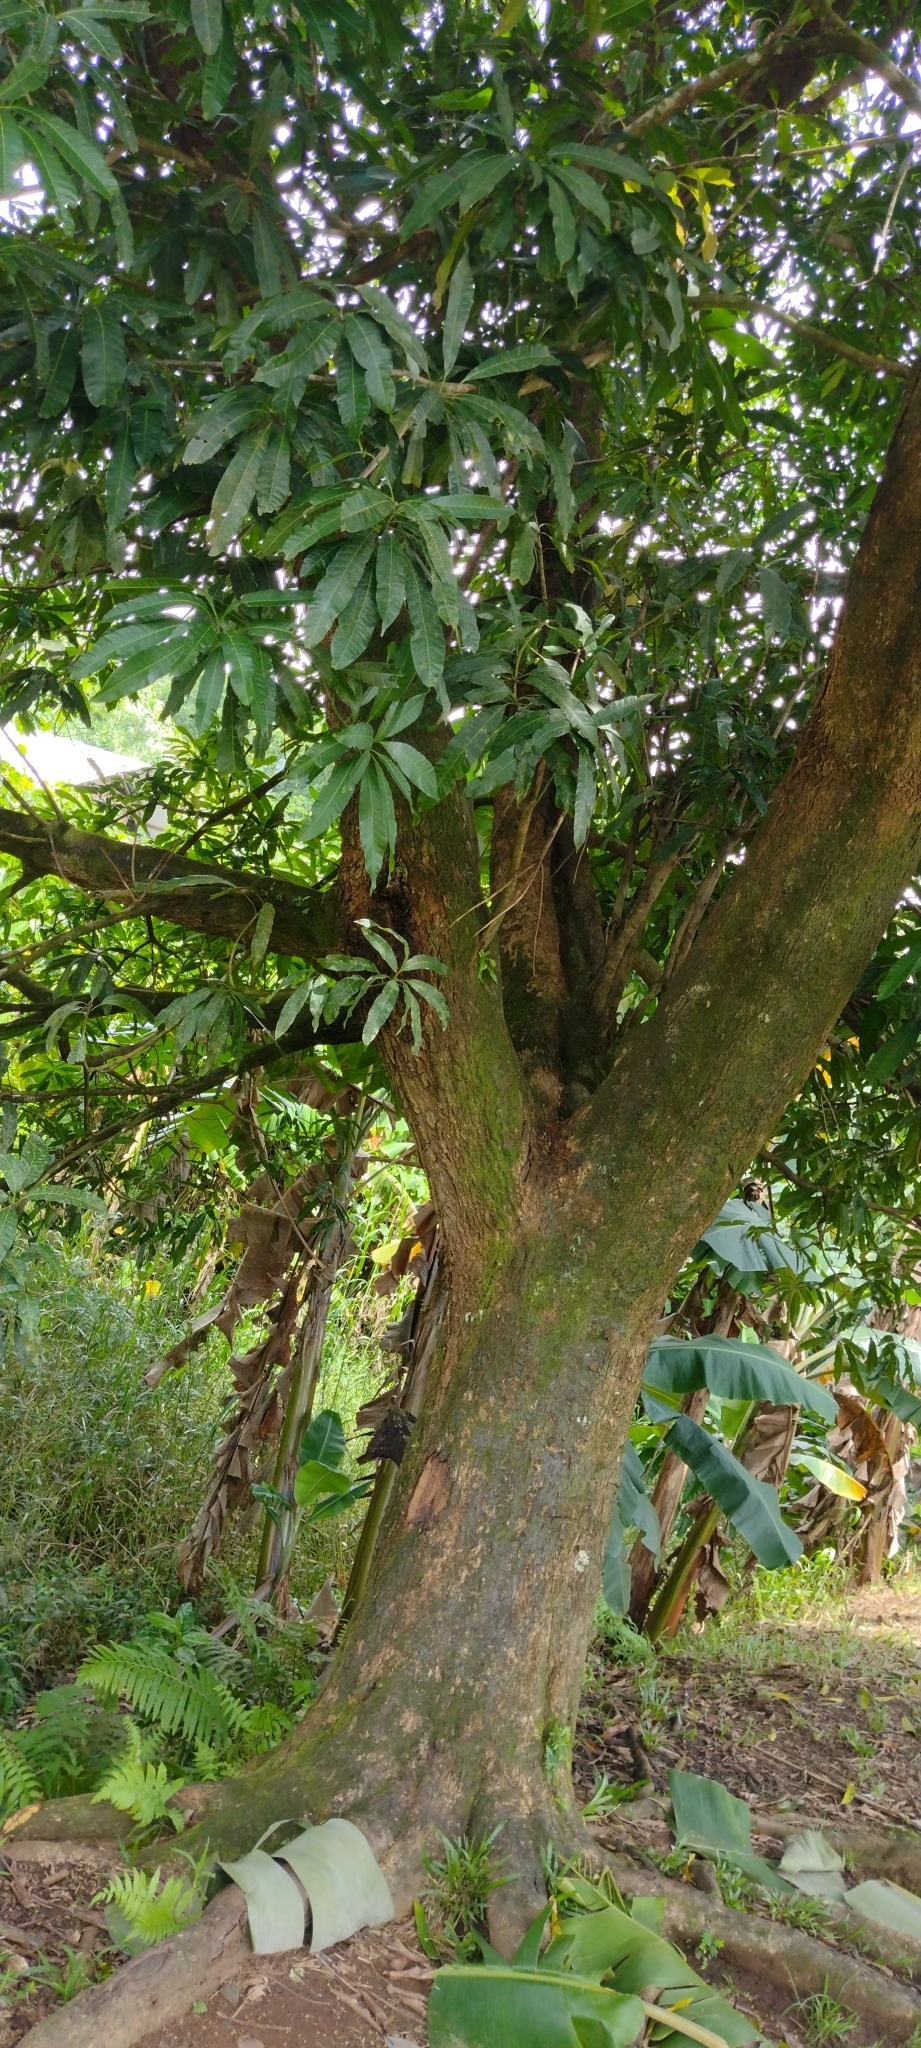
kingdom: Plantae
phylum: Tracheophyta
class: Magnoliopsida
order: Sapindales
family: Anacardiaceae
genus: Mangifera
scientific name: Mangifera indica
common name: Mango
